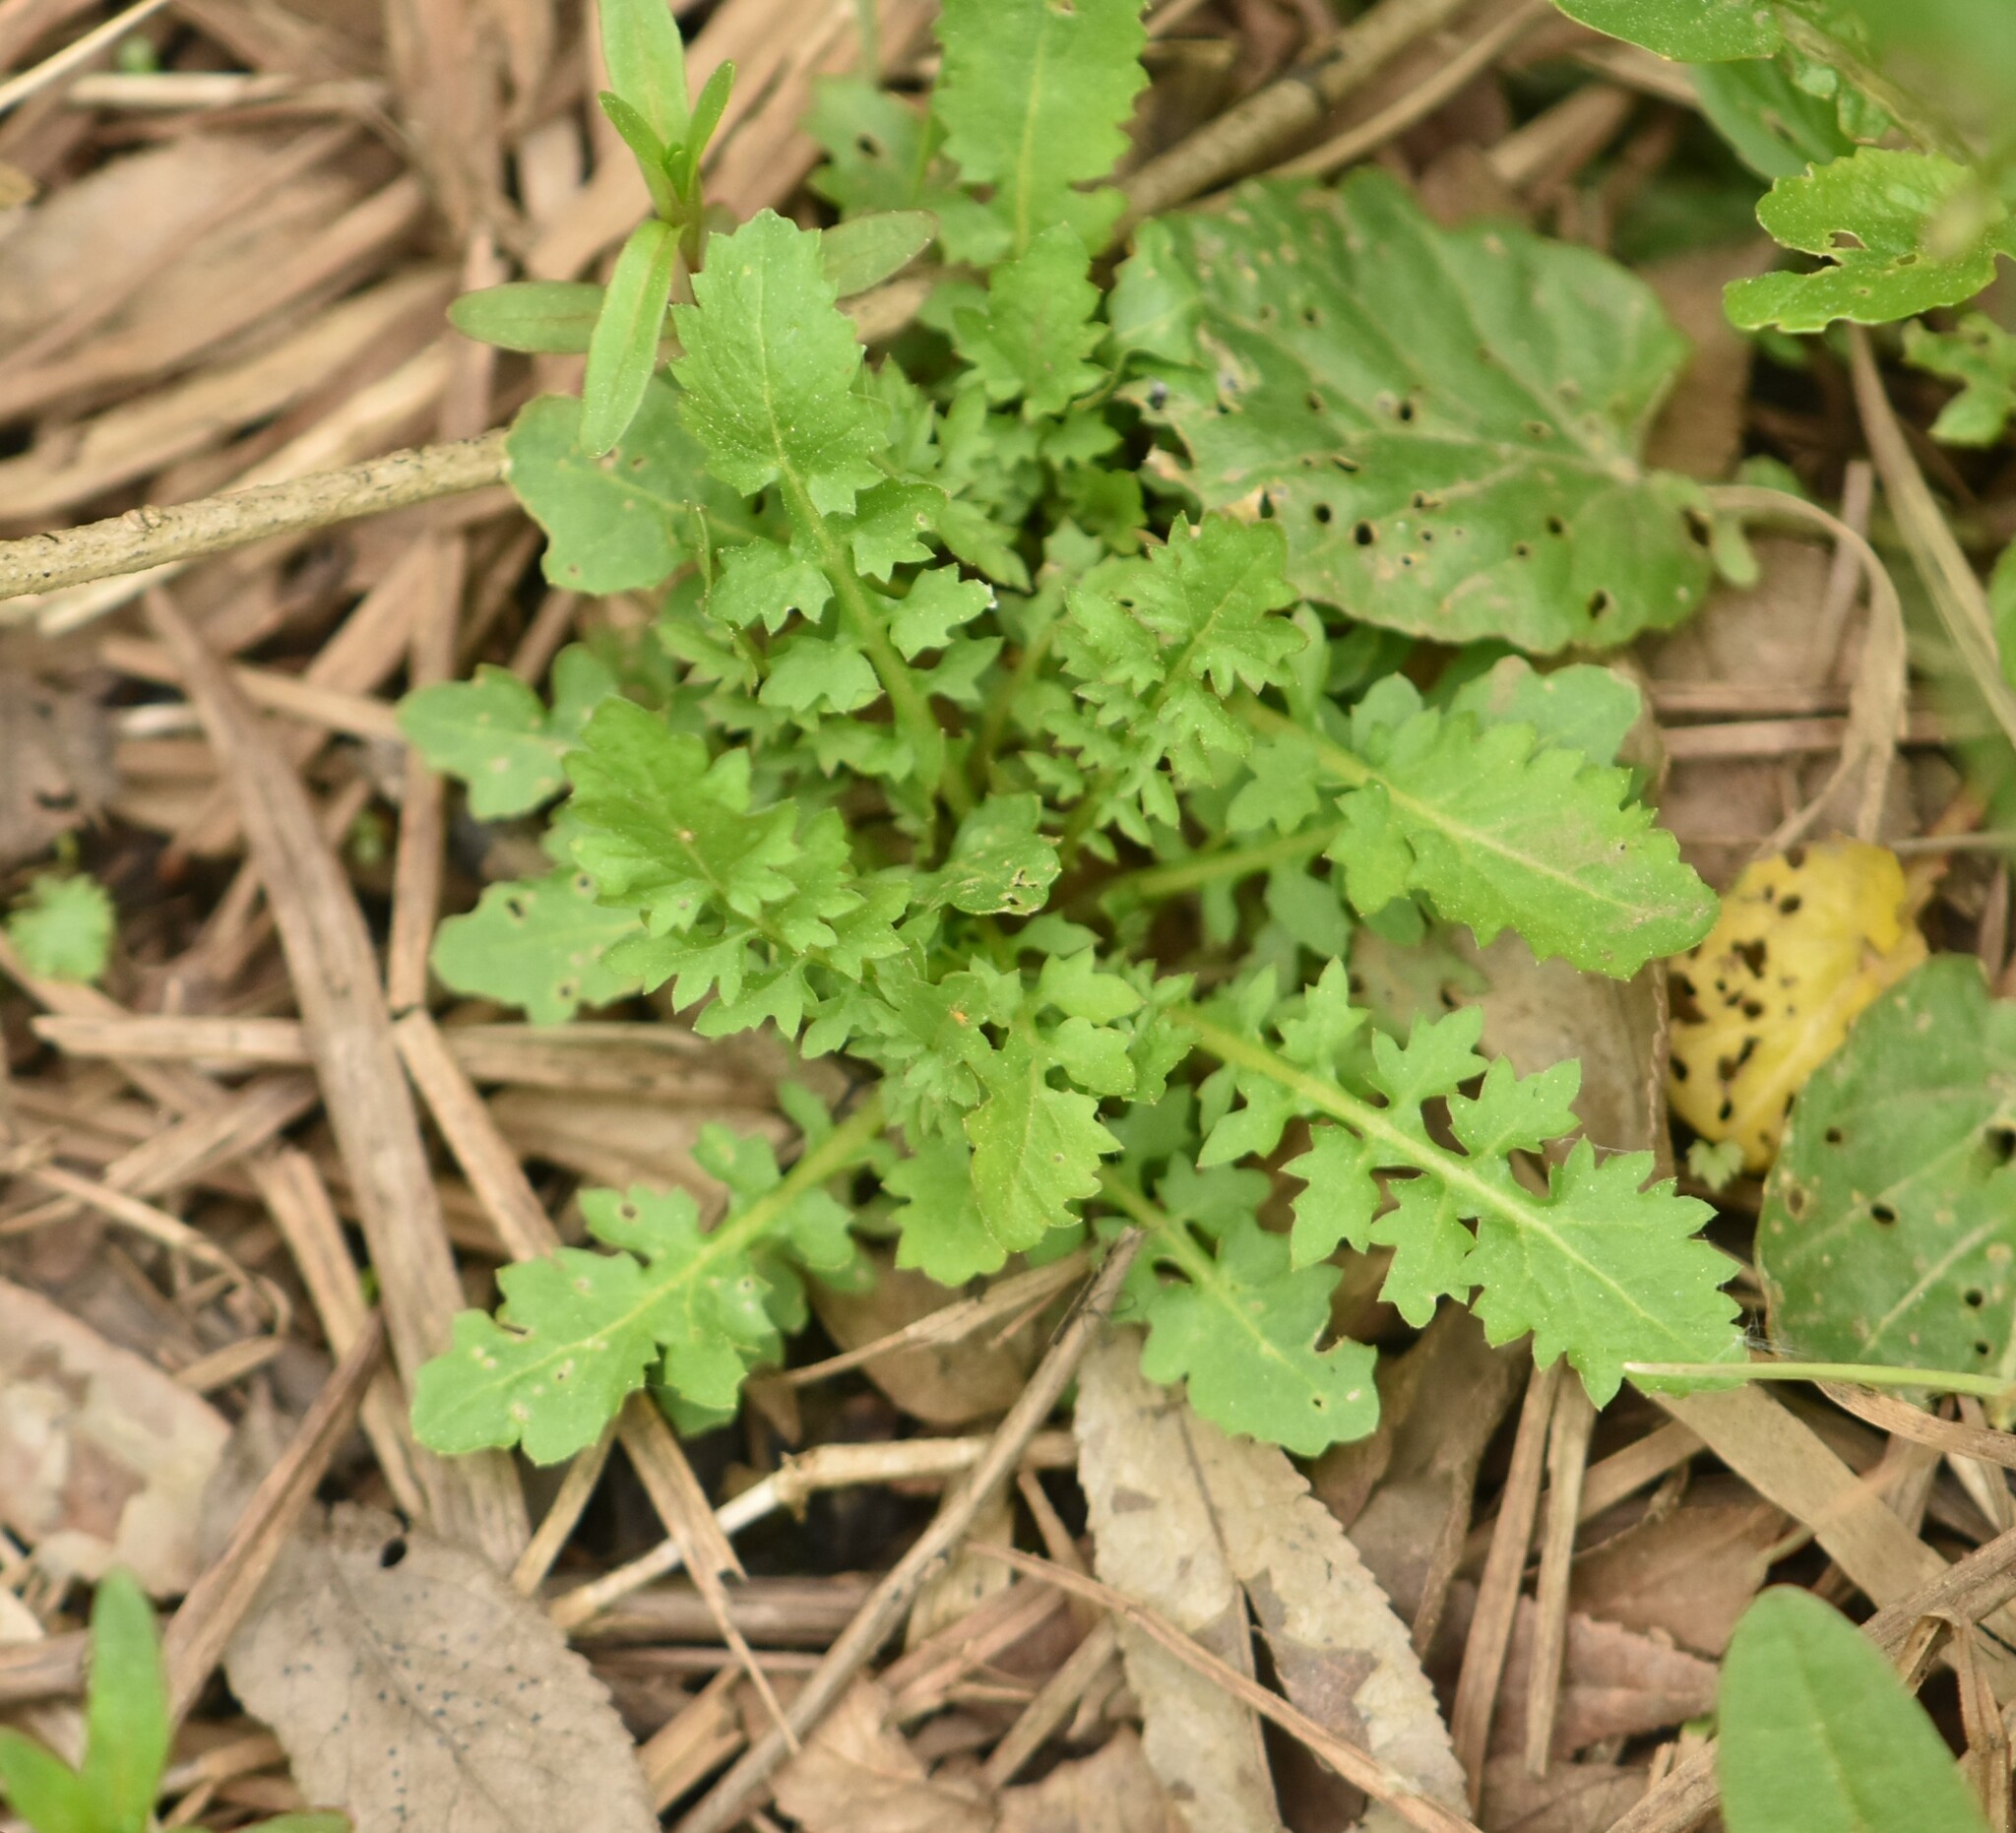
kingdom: Plantae
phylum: Tracheophyta
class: Magnoliopsida
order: Brassicales
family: Brassicaceae
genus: Rorippa
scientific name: Rorippa palustris
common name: Marsh yellow-cress
